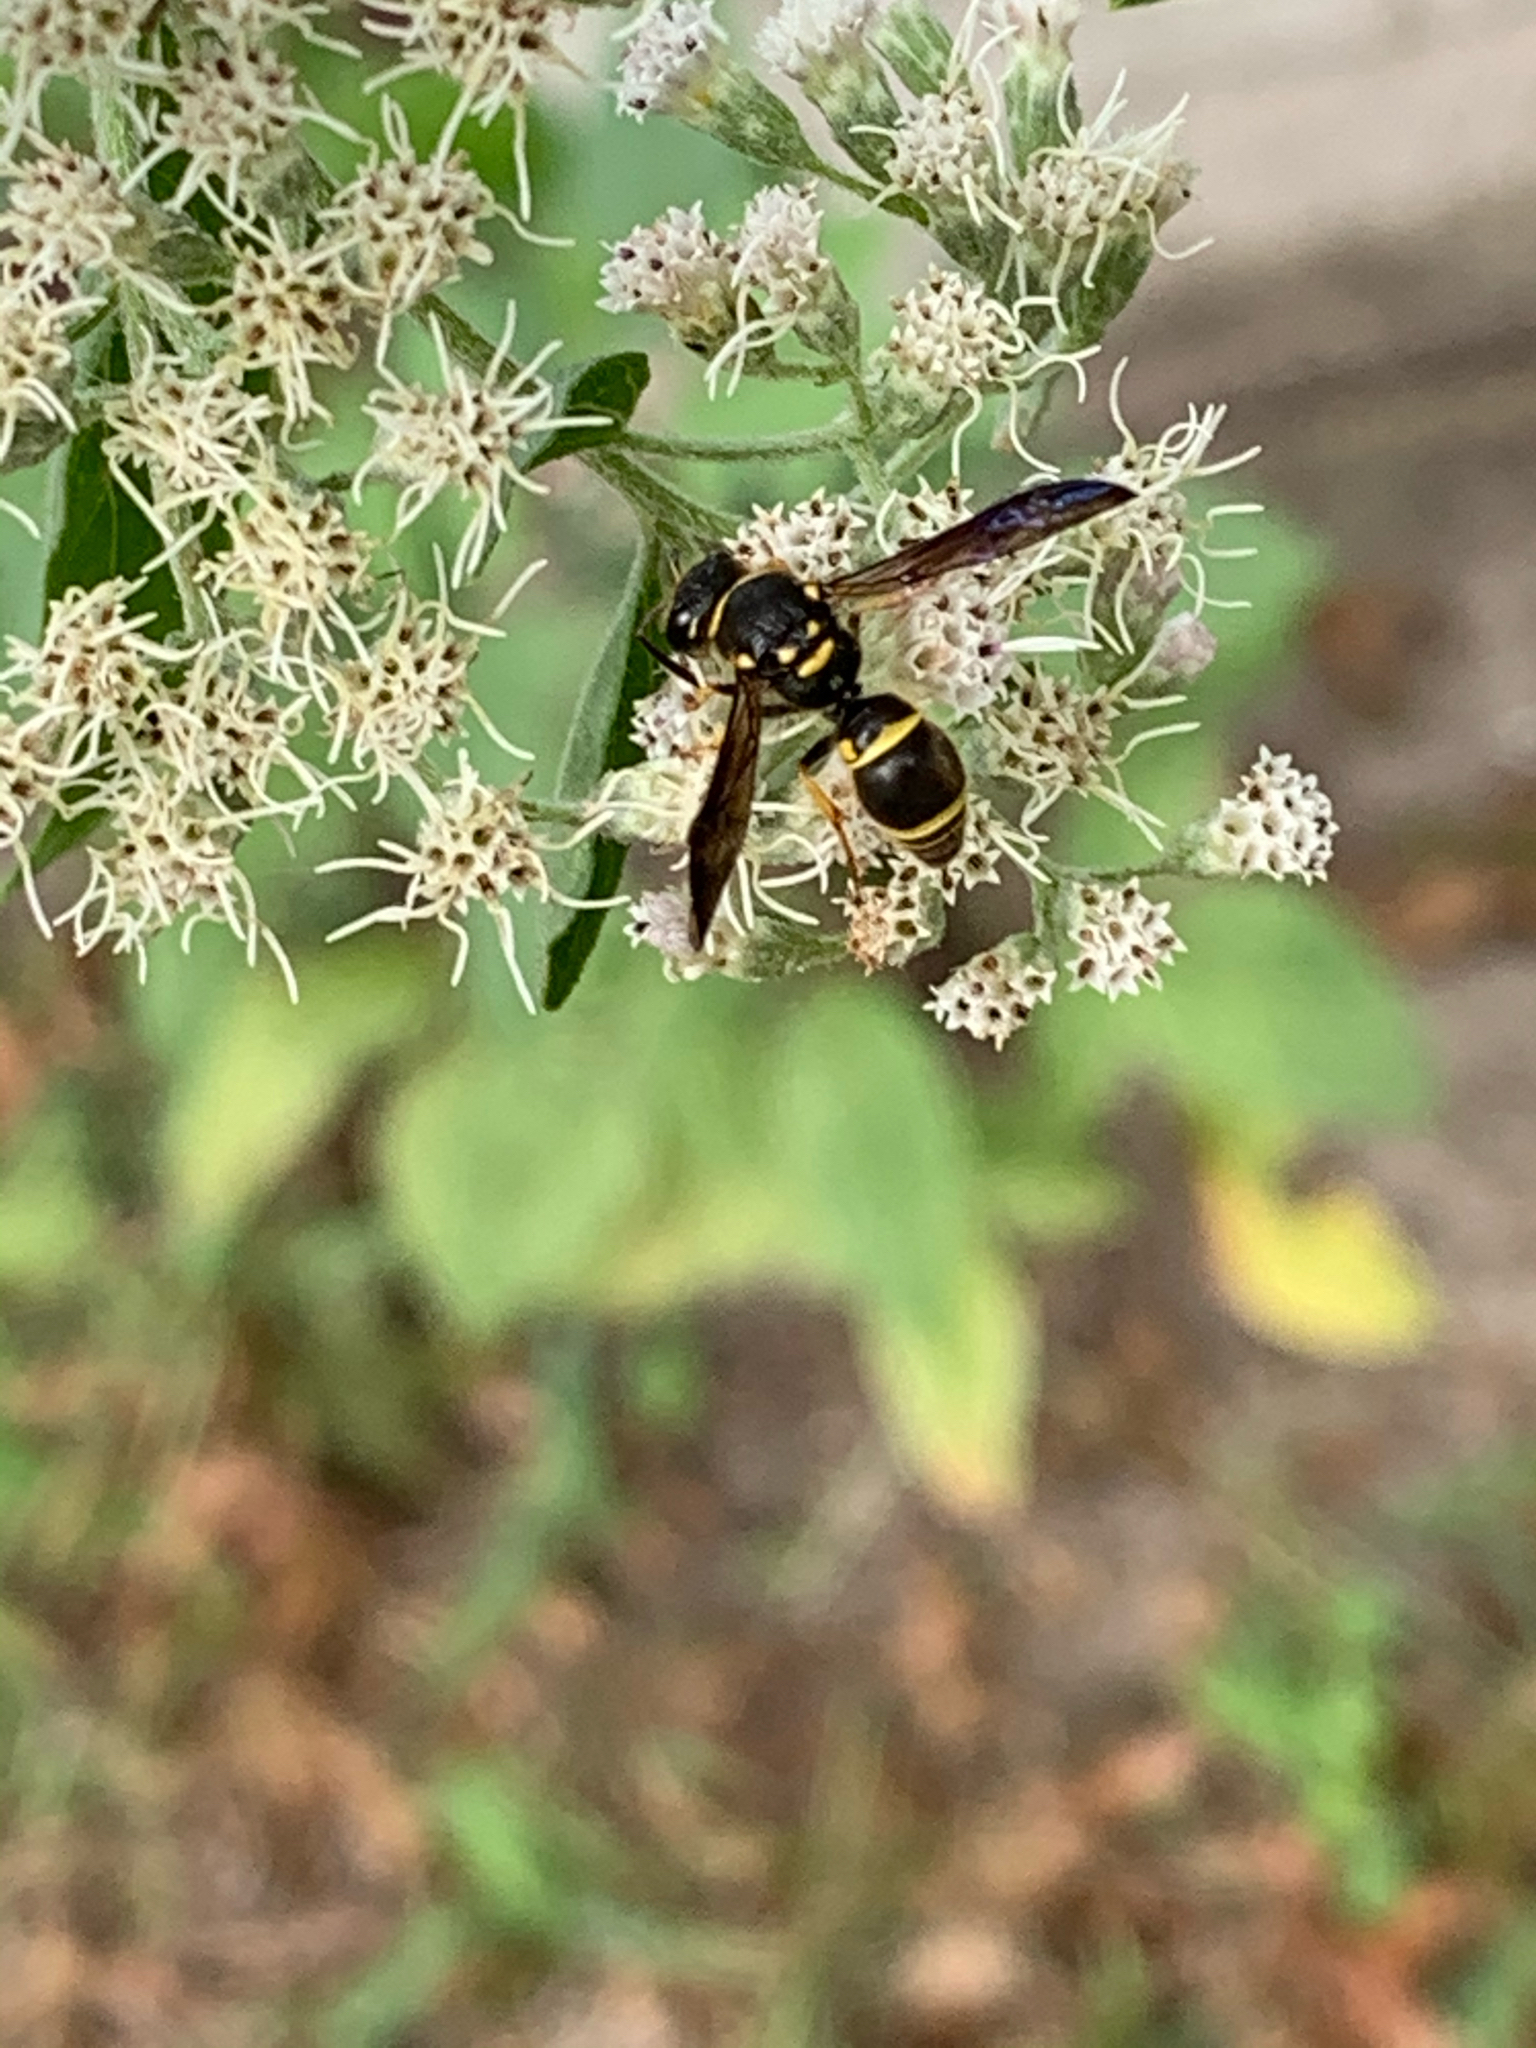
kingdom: Animalia
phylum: Arthropoda
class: Insecta
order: Hymenoptera
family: Vespidae
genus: Ancistrocerus
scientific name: Ancistrocerus campestris
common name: Smiling mason wasp
